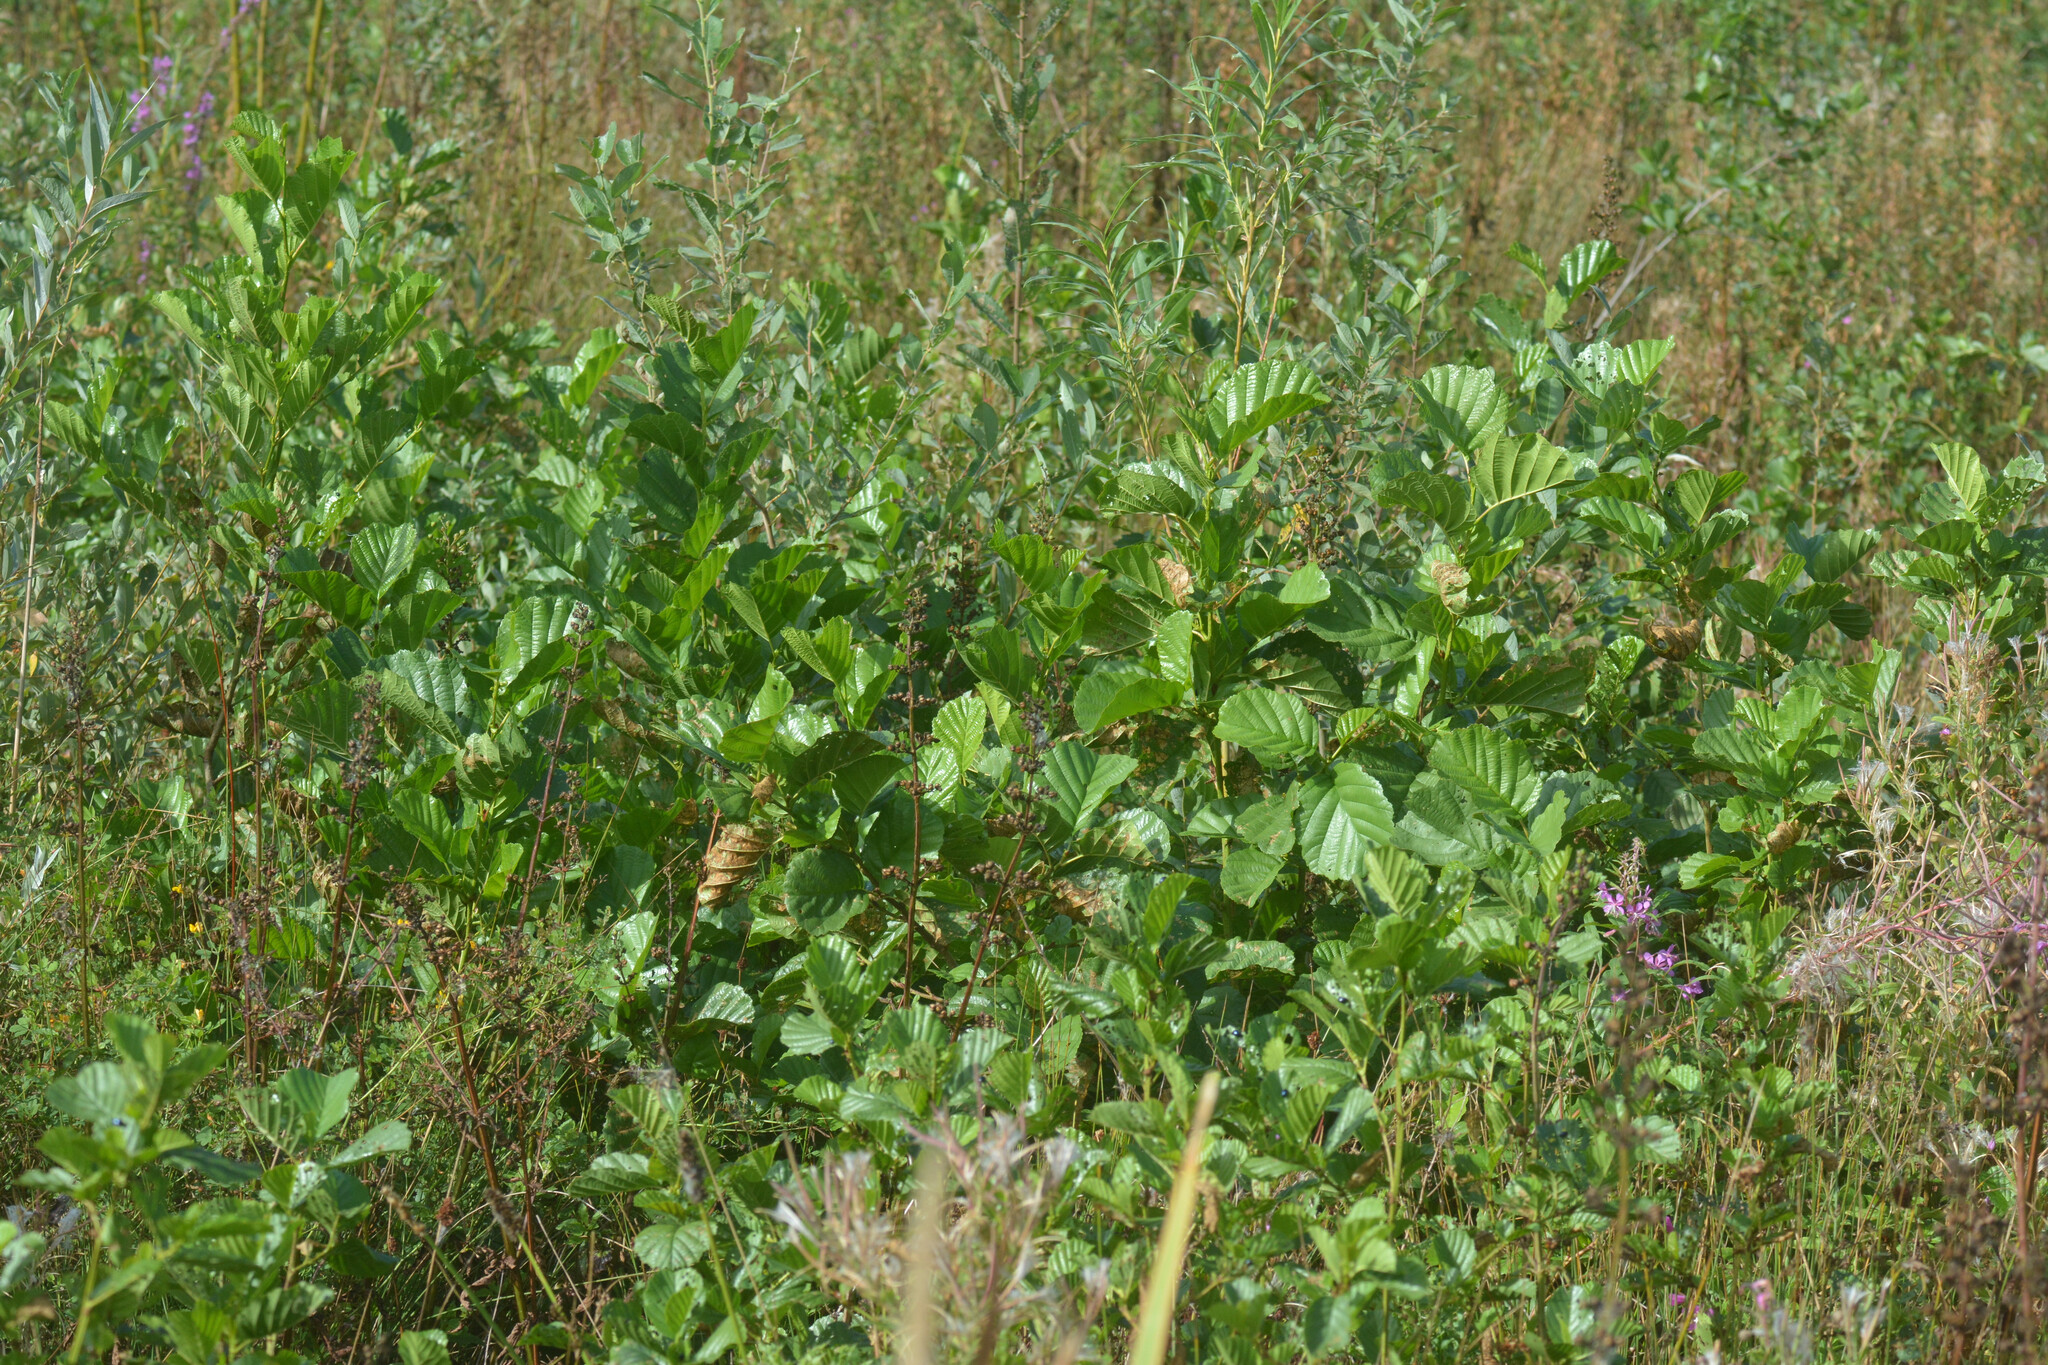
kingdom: Plantae
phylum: Tracheophyta
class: Magnoliopsida
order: Fagales
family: Betulaceae
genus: Alnus
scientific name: Alnus glutinosa
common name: Black alder
